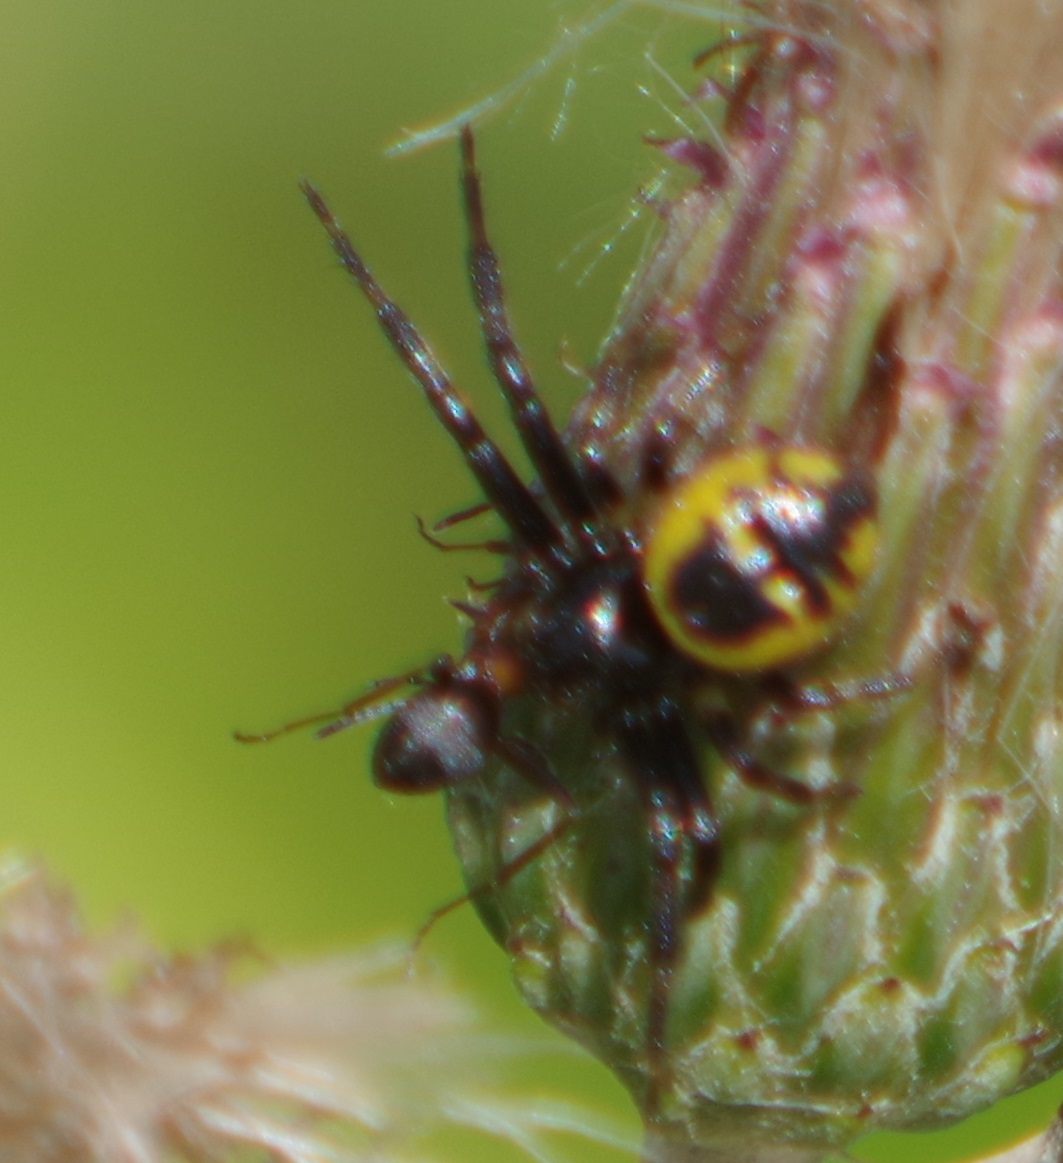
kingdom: Animalia
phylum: Arthropoda
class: Arachnida
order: Araneae
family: Thomisidae
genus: Synema
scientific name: Synema globosum
